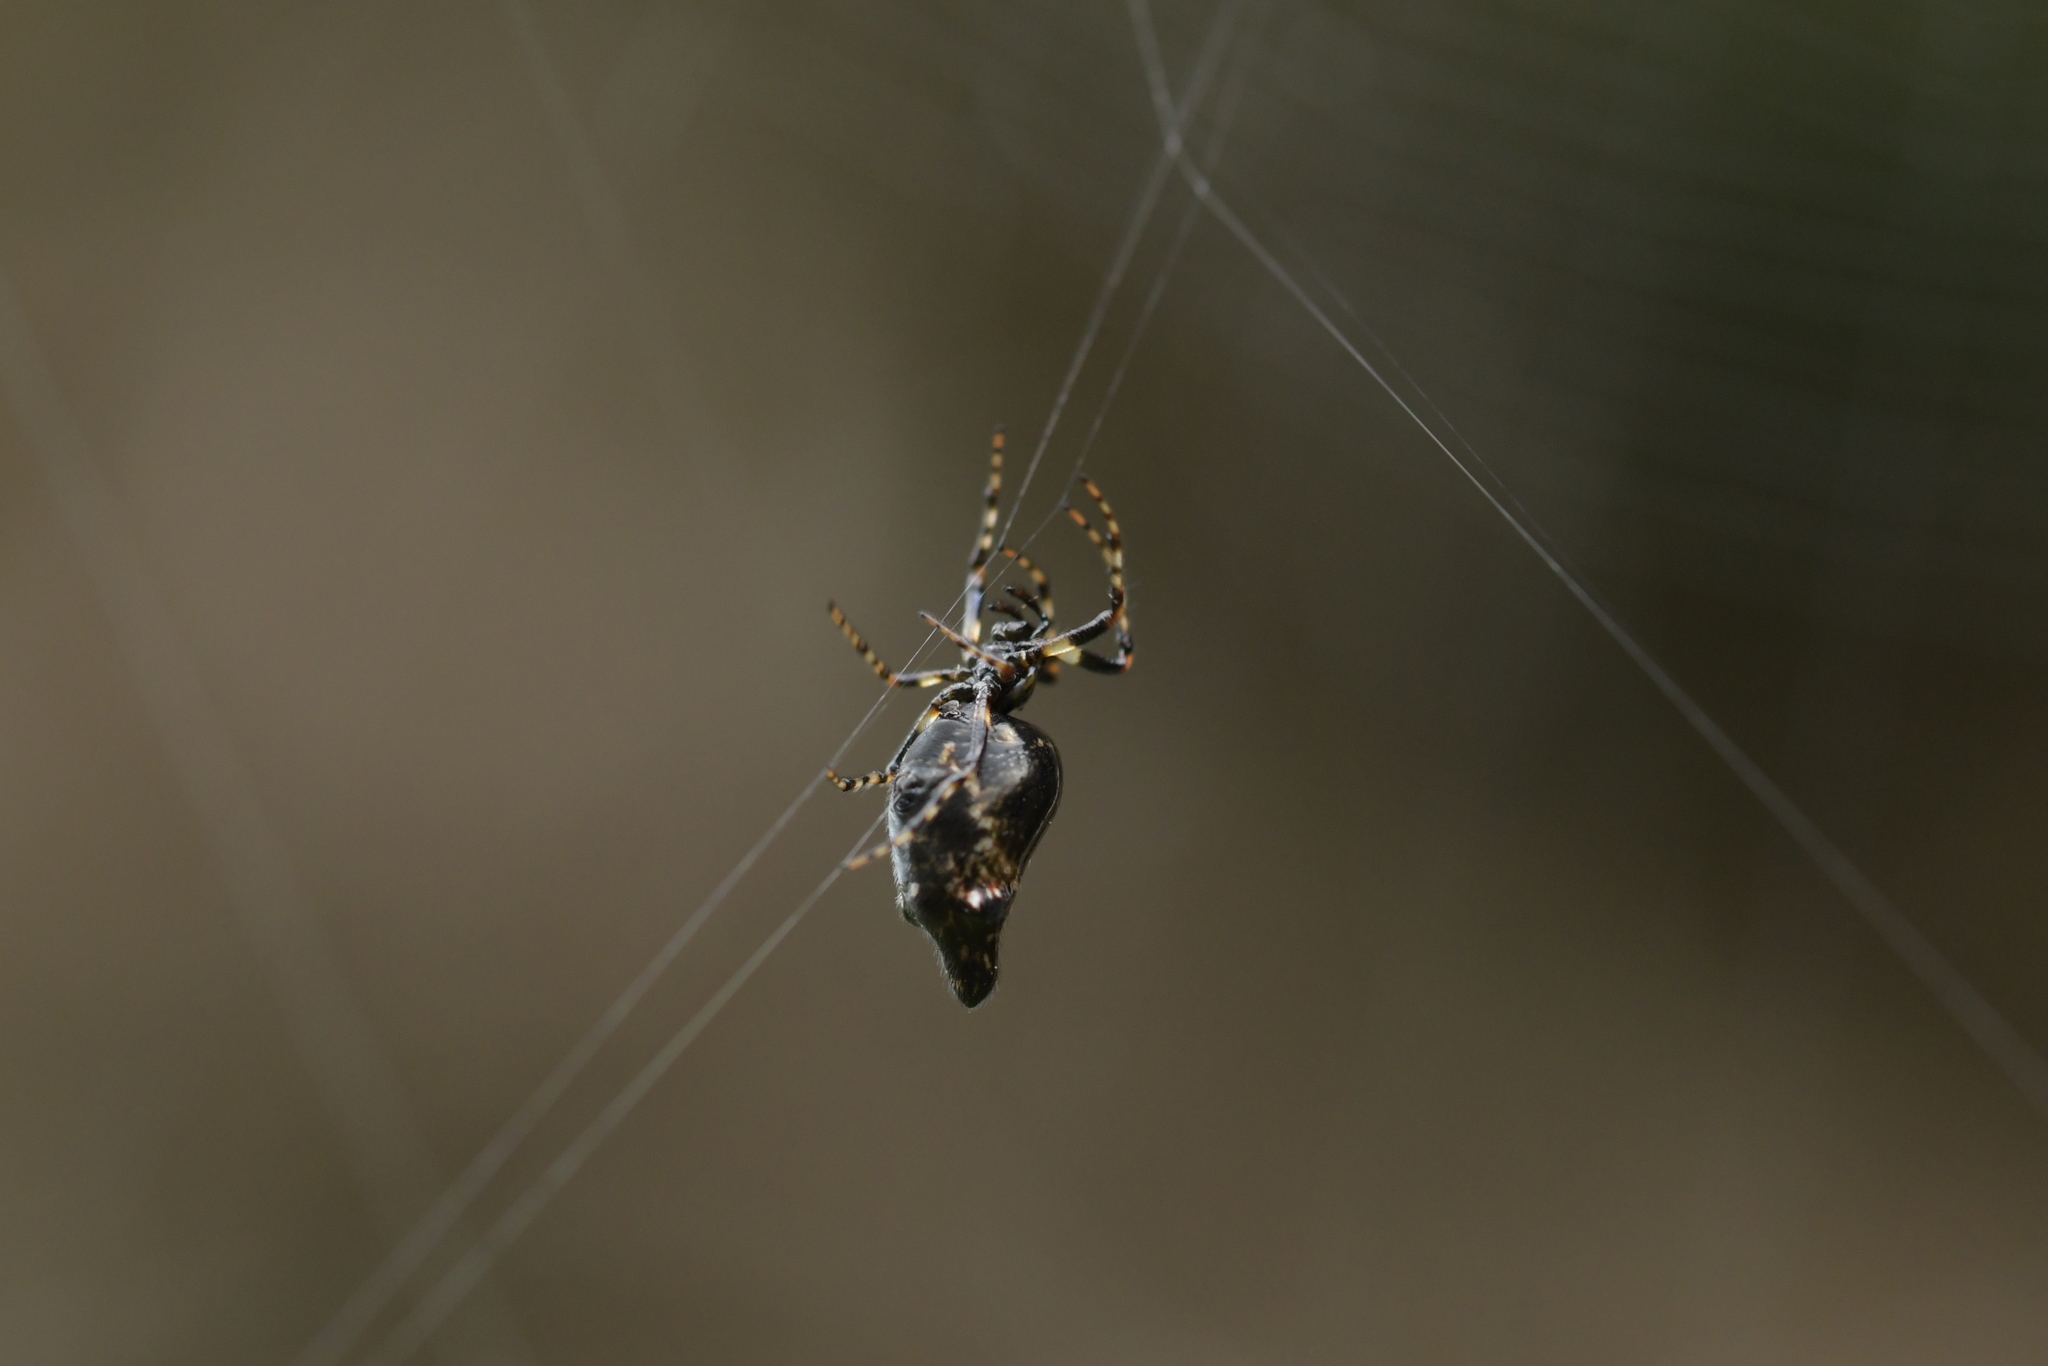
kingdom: Animalia
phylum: Arthropoda
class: Arachnida
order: Araneae
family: Araneidae
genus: Cyclosa
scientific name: Cyclosa trilobata
